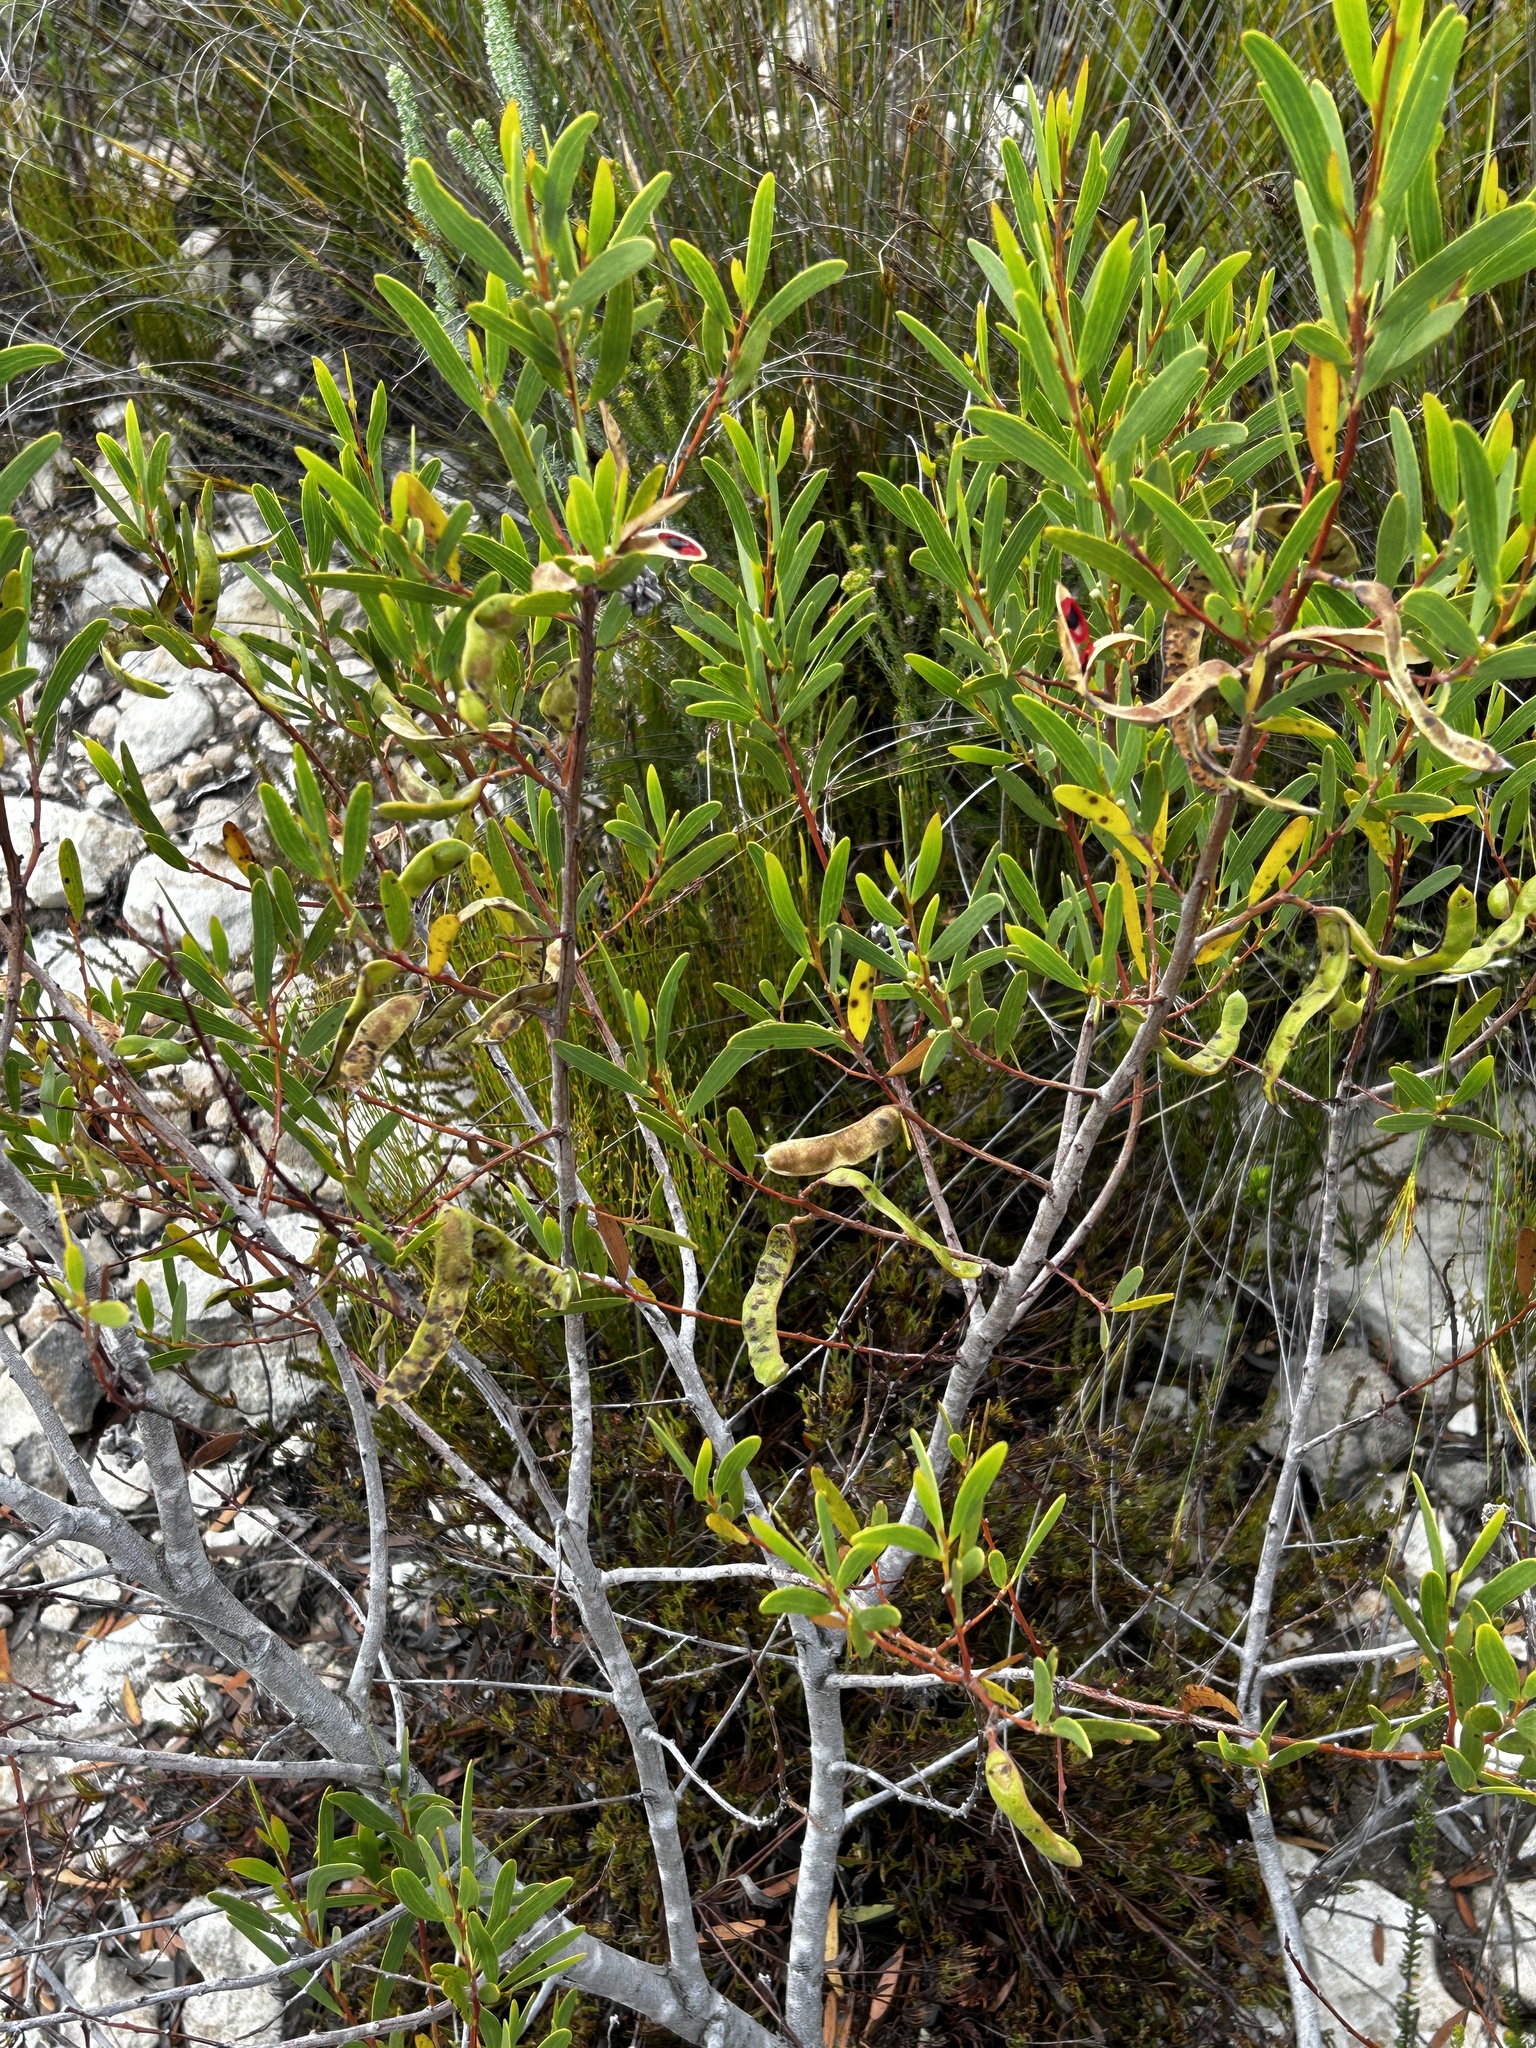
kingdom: Plantae
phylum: Tracheophyta
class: Magnoliopsida
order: Fabales
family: Fabaceae
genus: Acacia
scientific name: Acacia cyclops
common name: Coastal wattle
